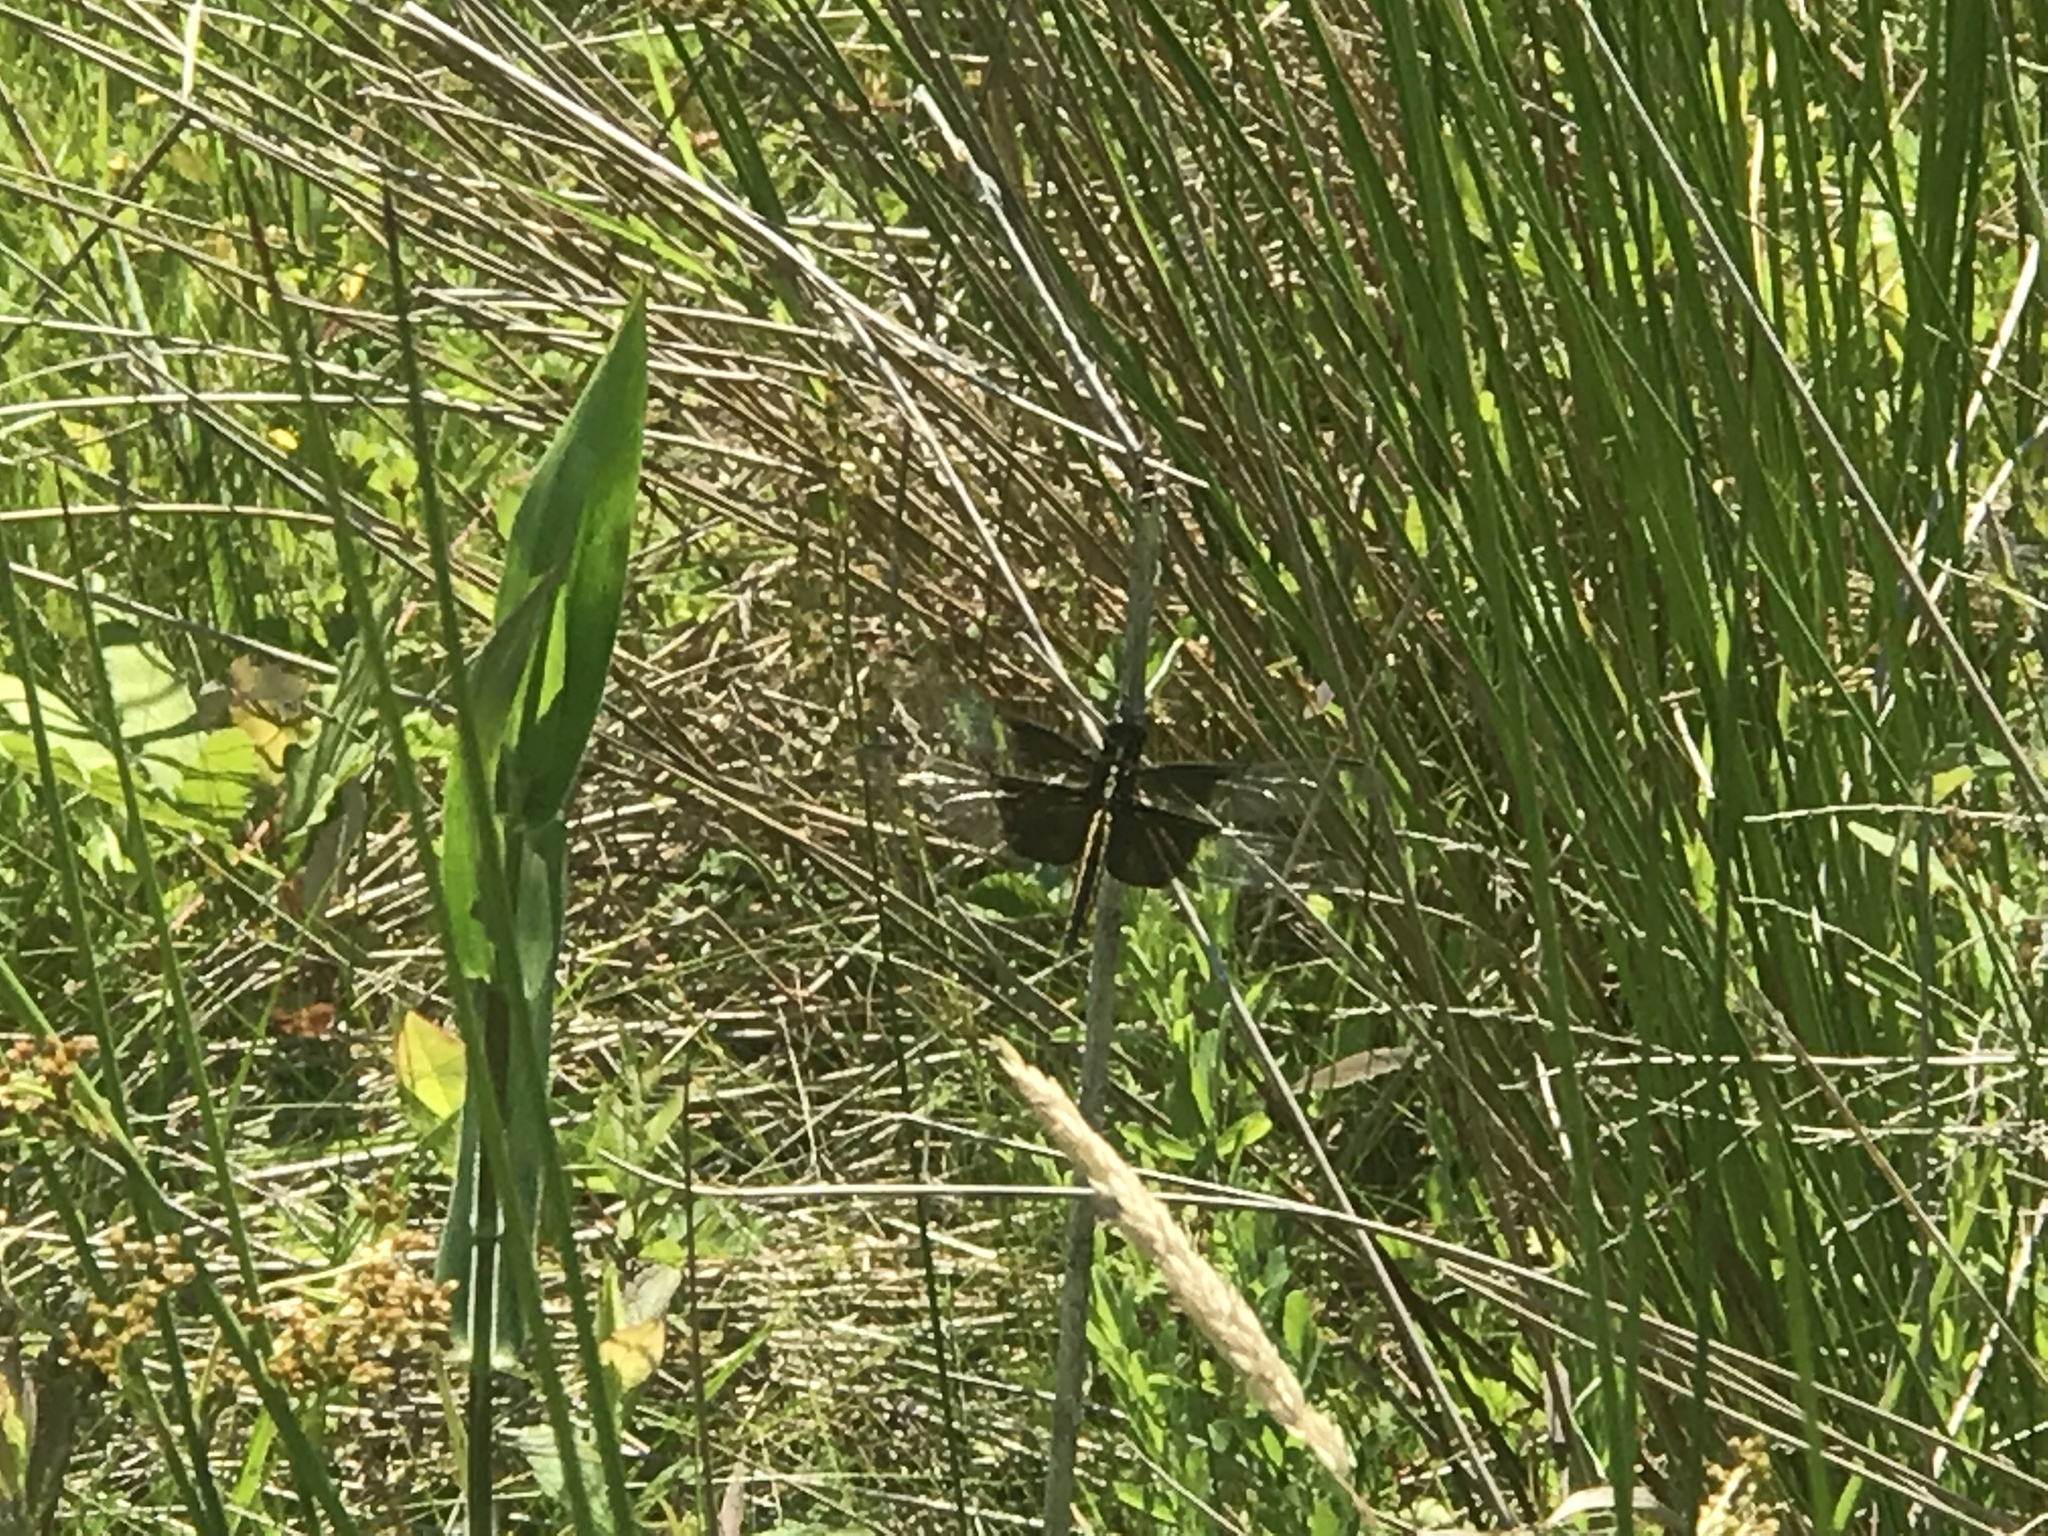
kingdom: Animalia
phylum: Arthropoda
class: Insecta
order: Odonata
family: Libellulidae
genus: Libellula
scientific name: Libellula luctuosa
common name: Widow skimmer
